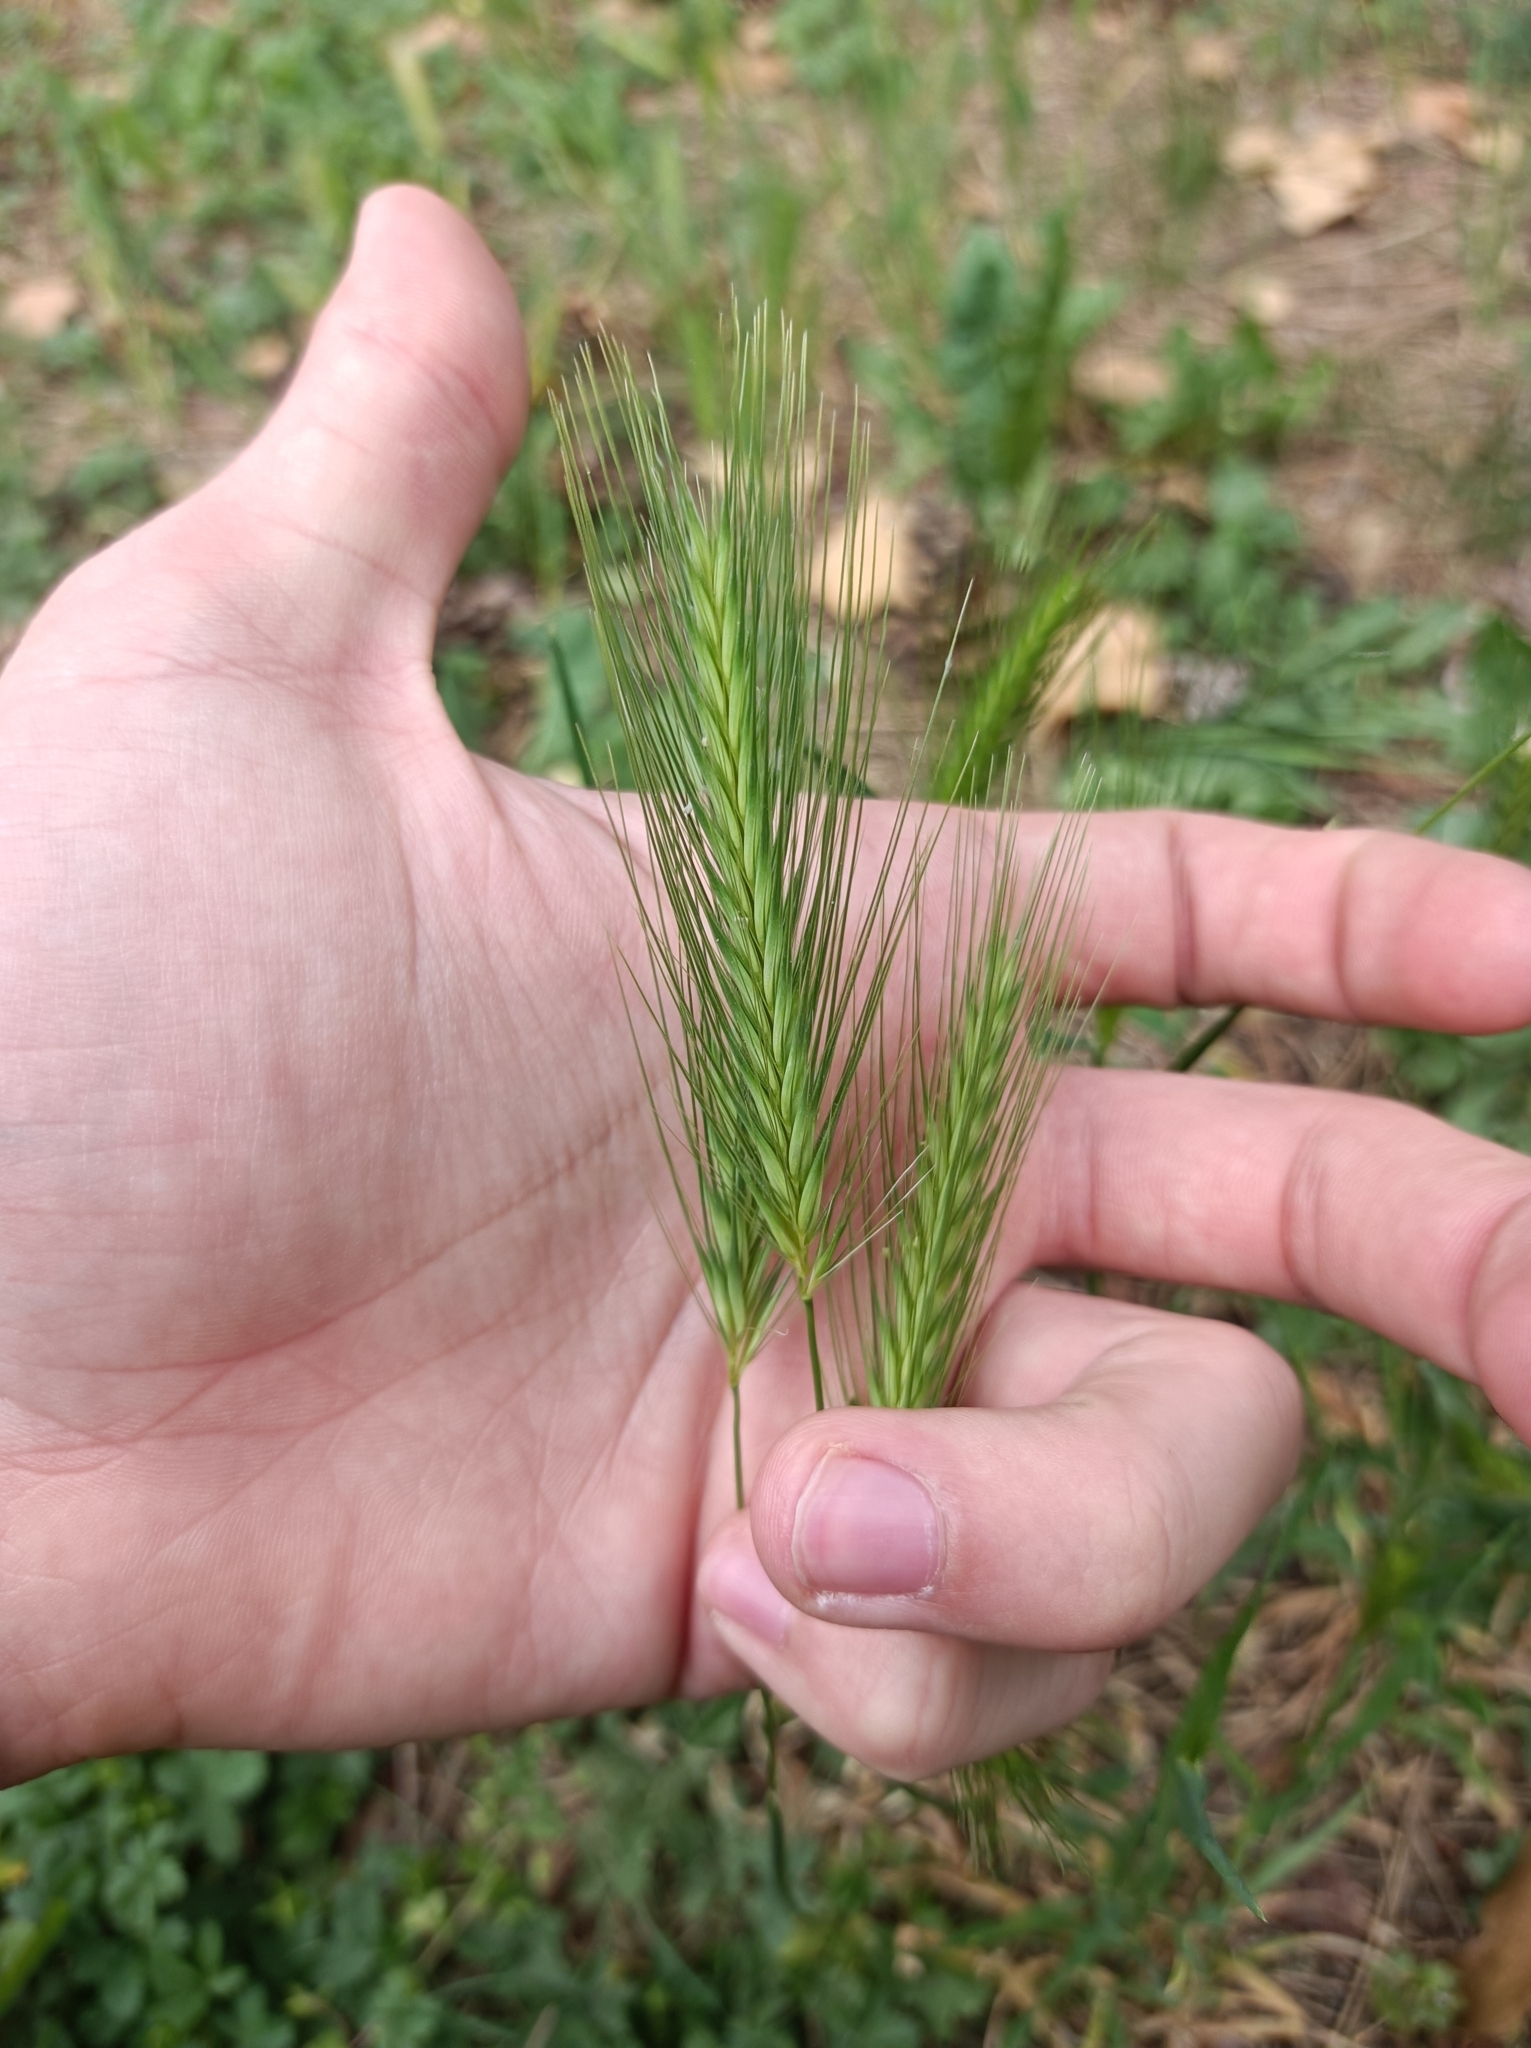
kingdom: Plantae
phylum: Tracheophyta
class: Liliopsida
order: Poales
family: Poaceae
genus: Hordeum
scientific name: Hordeum murinum
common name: Wall barley
